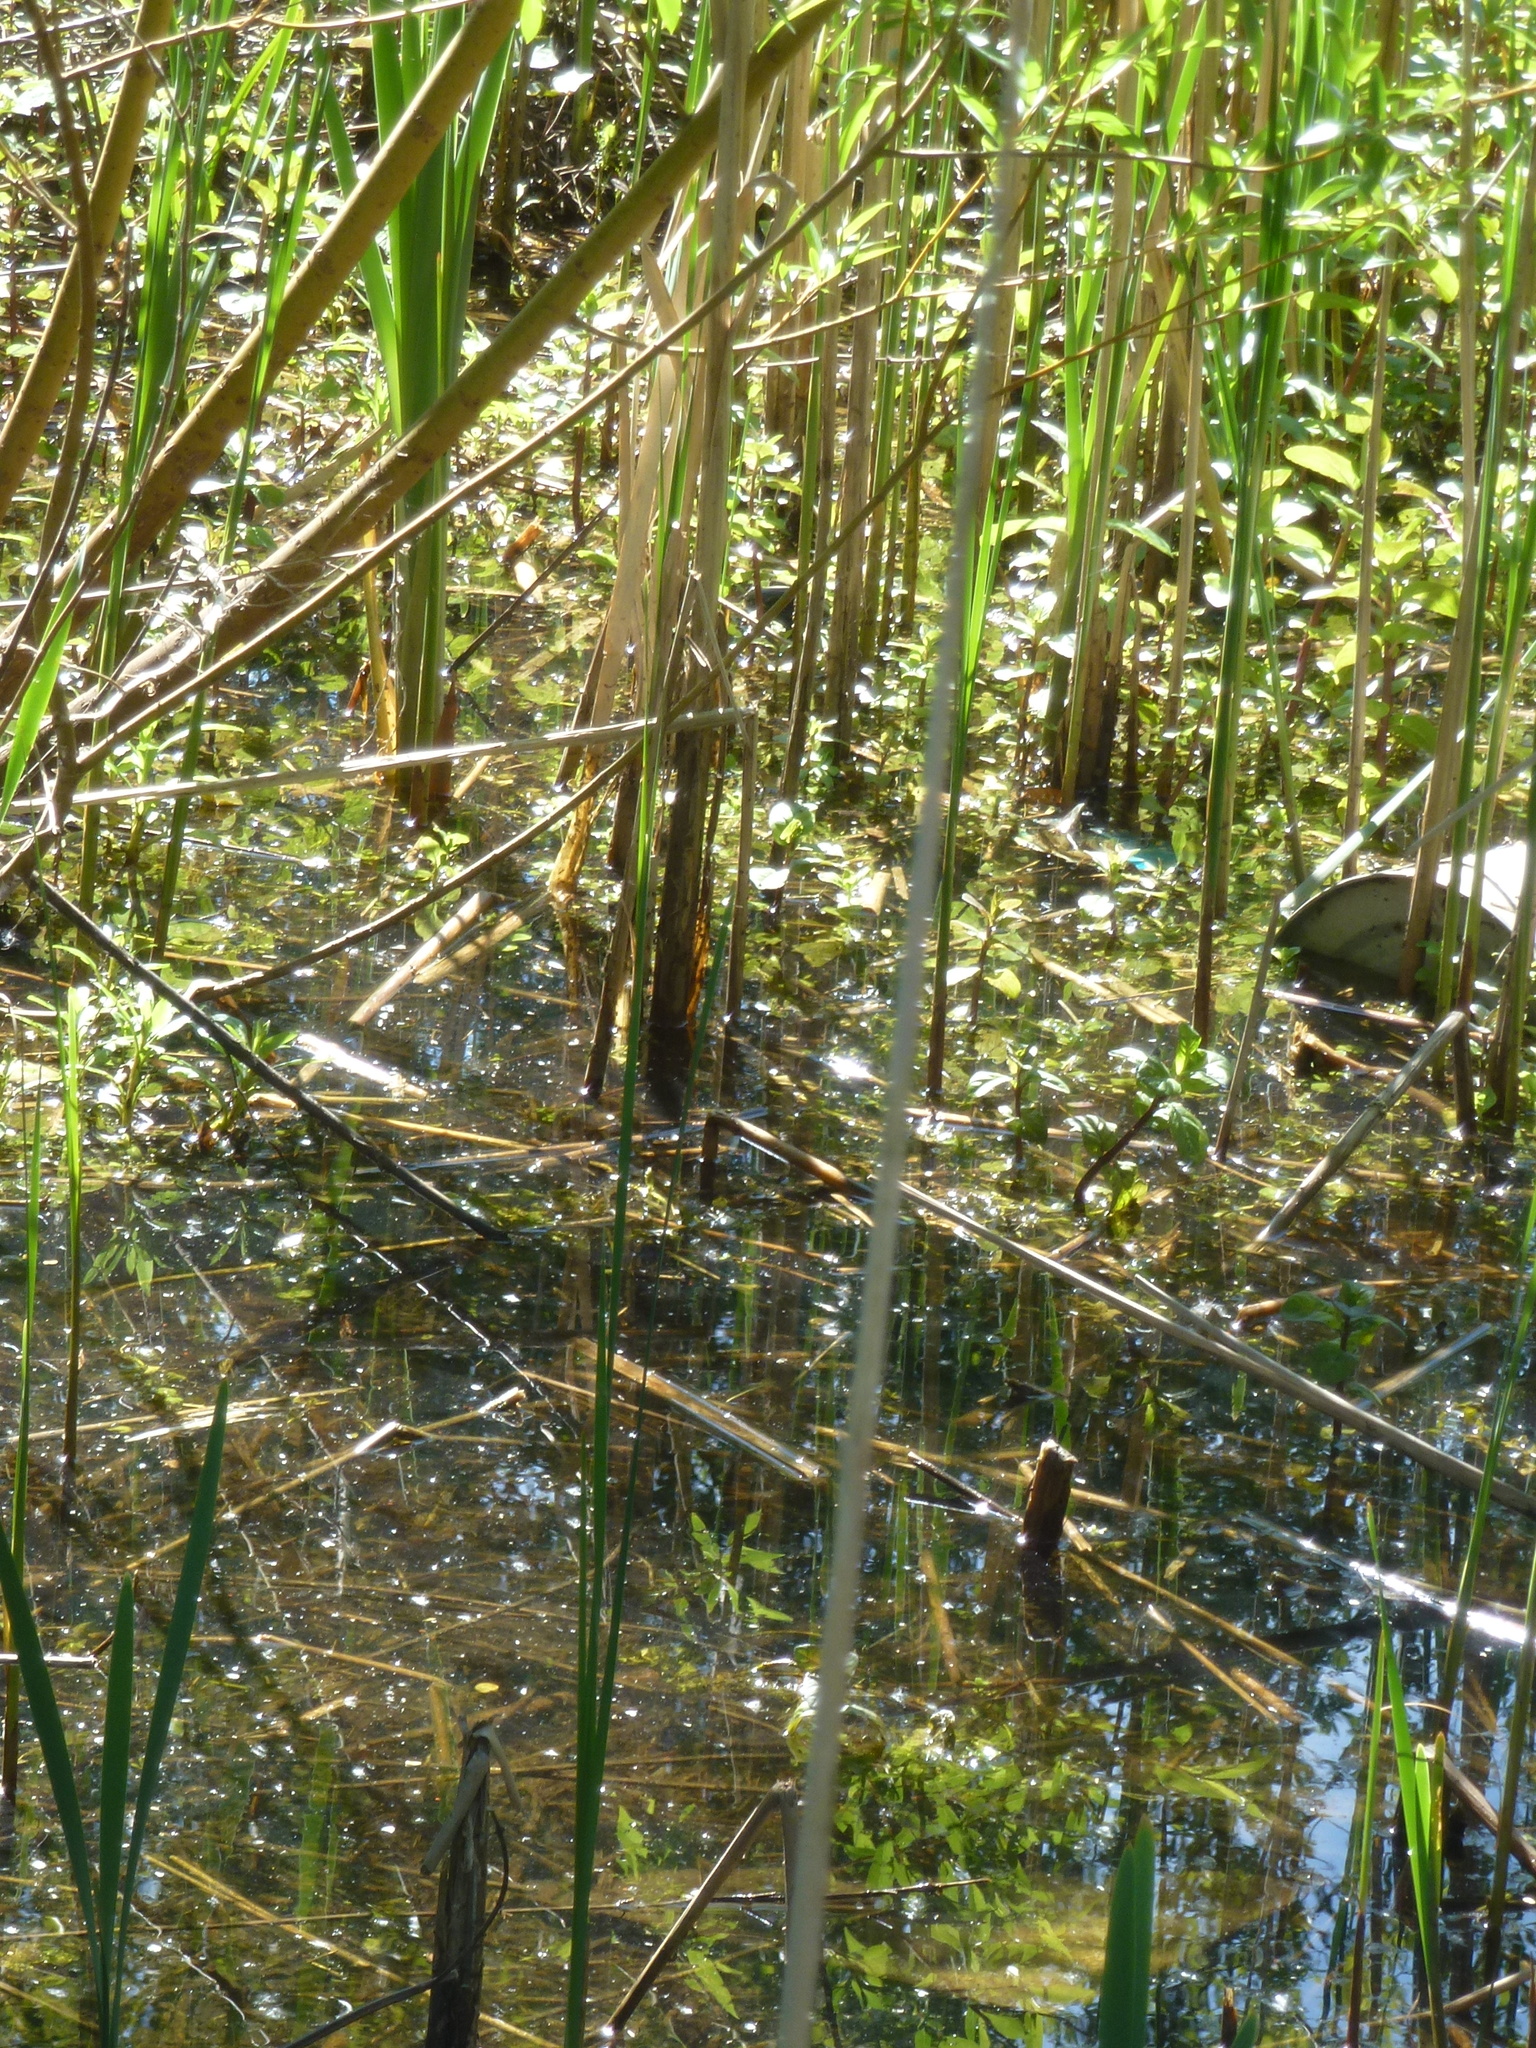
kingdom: Plantae
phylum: Tracheophyta
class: Liliopsida
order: Poales
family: Cyperaceae
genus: Carex
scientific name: Carex pendula
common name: Pendulous sedge
